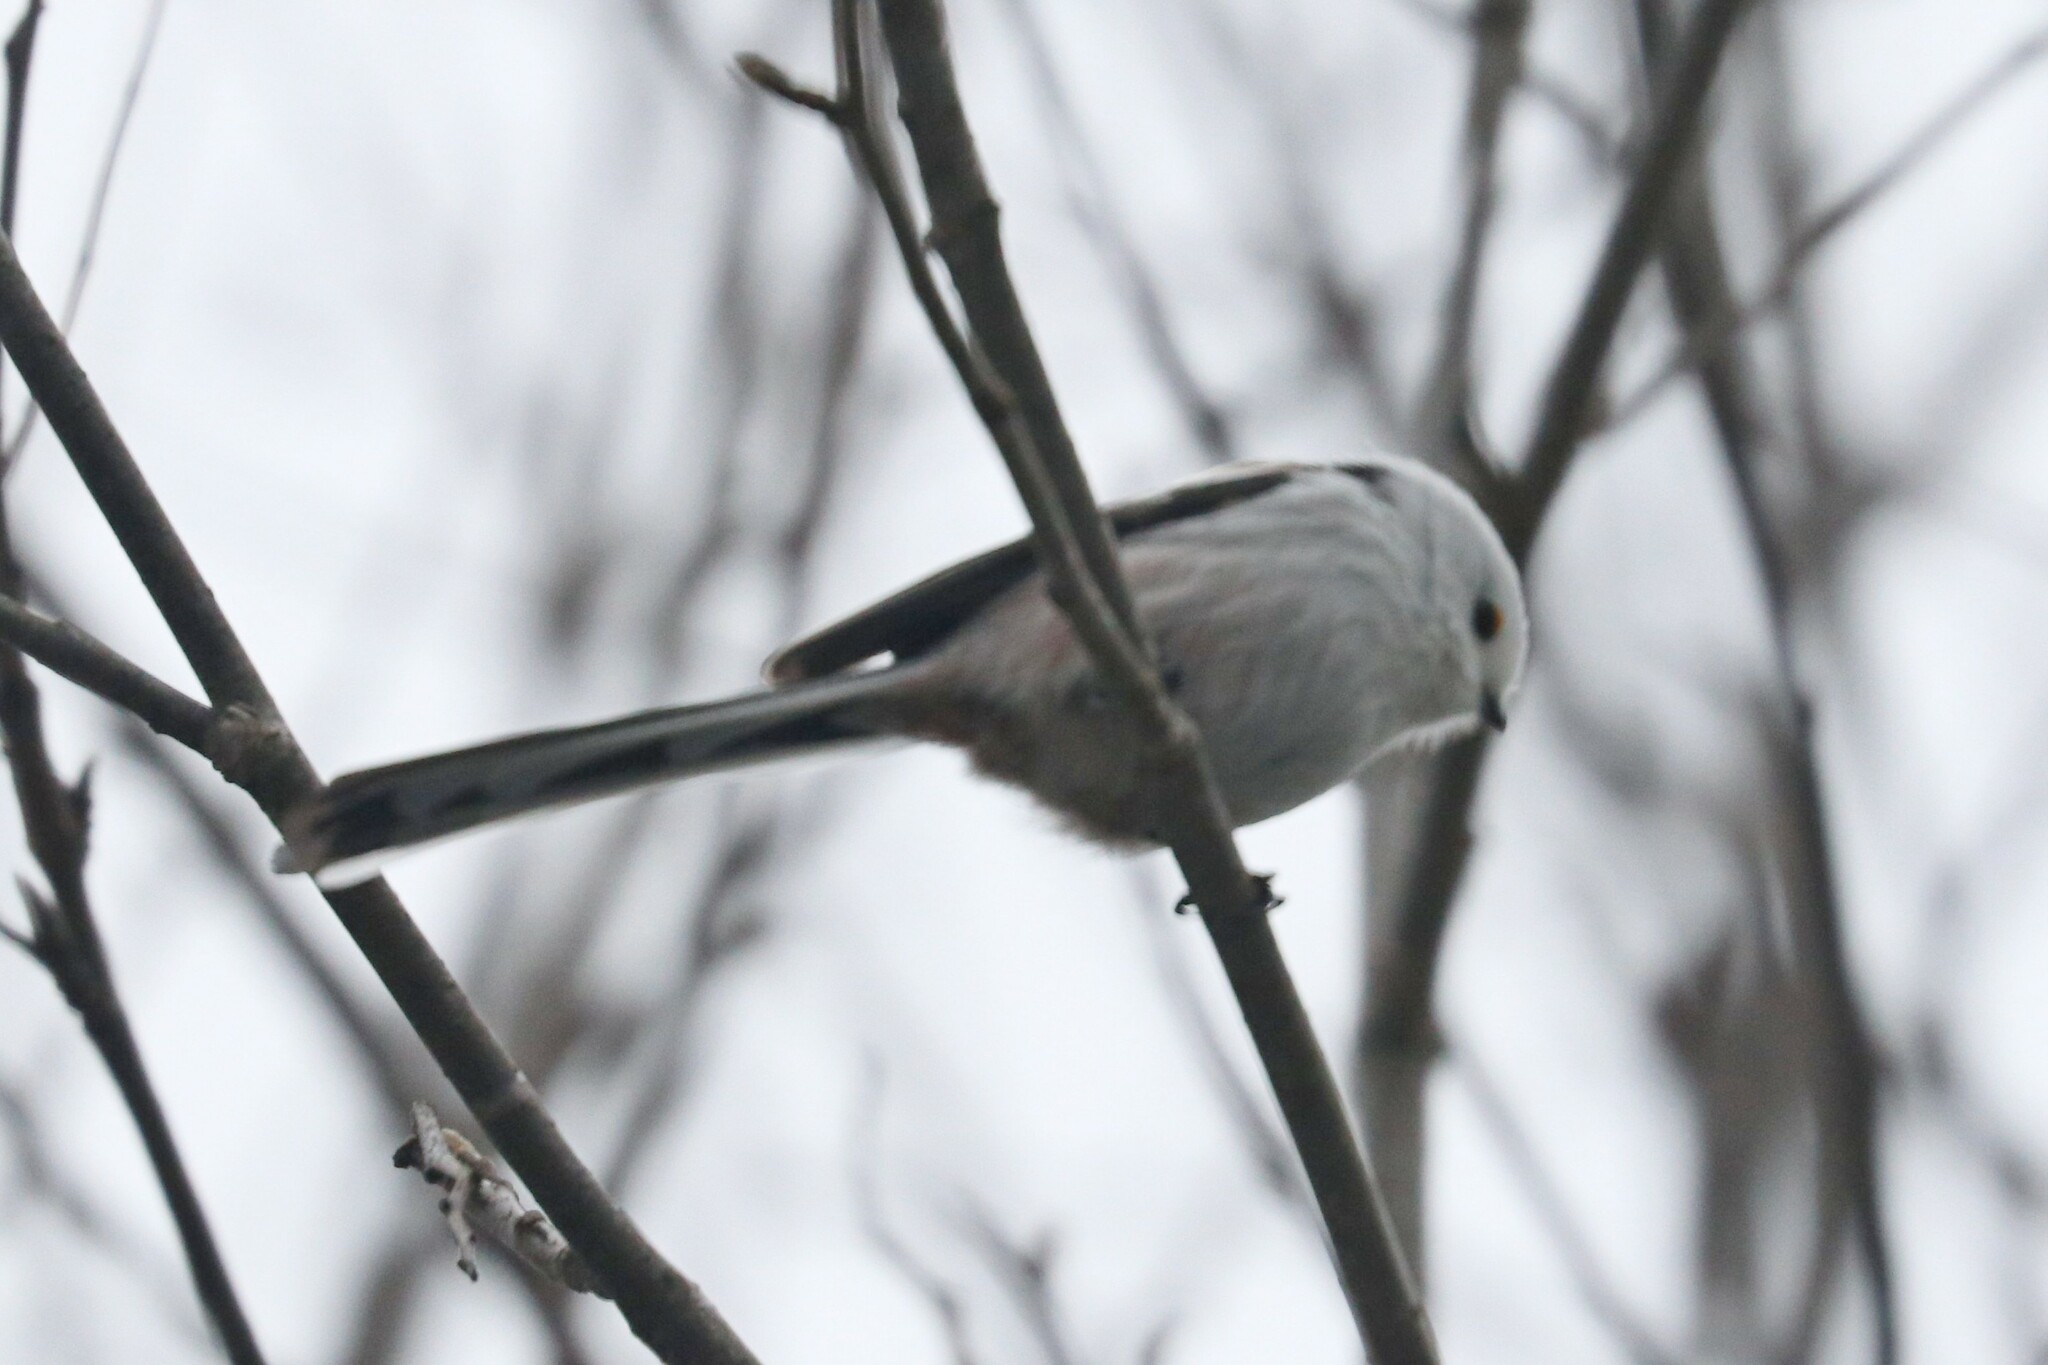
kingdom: Animalia
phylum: Chordata
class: Aves
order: Passeriformes
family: Aegithalidae
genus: Aegithalos
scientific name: Aegithalos caudatus
